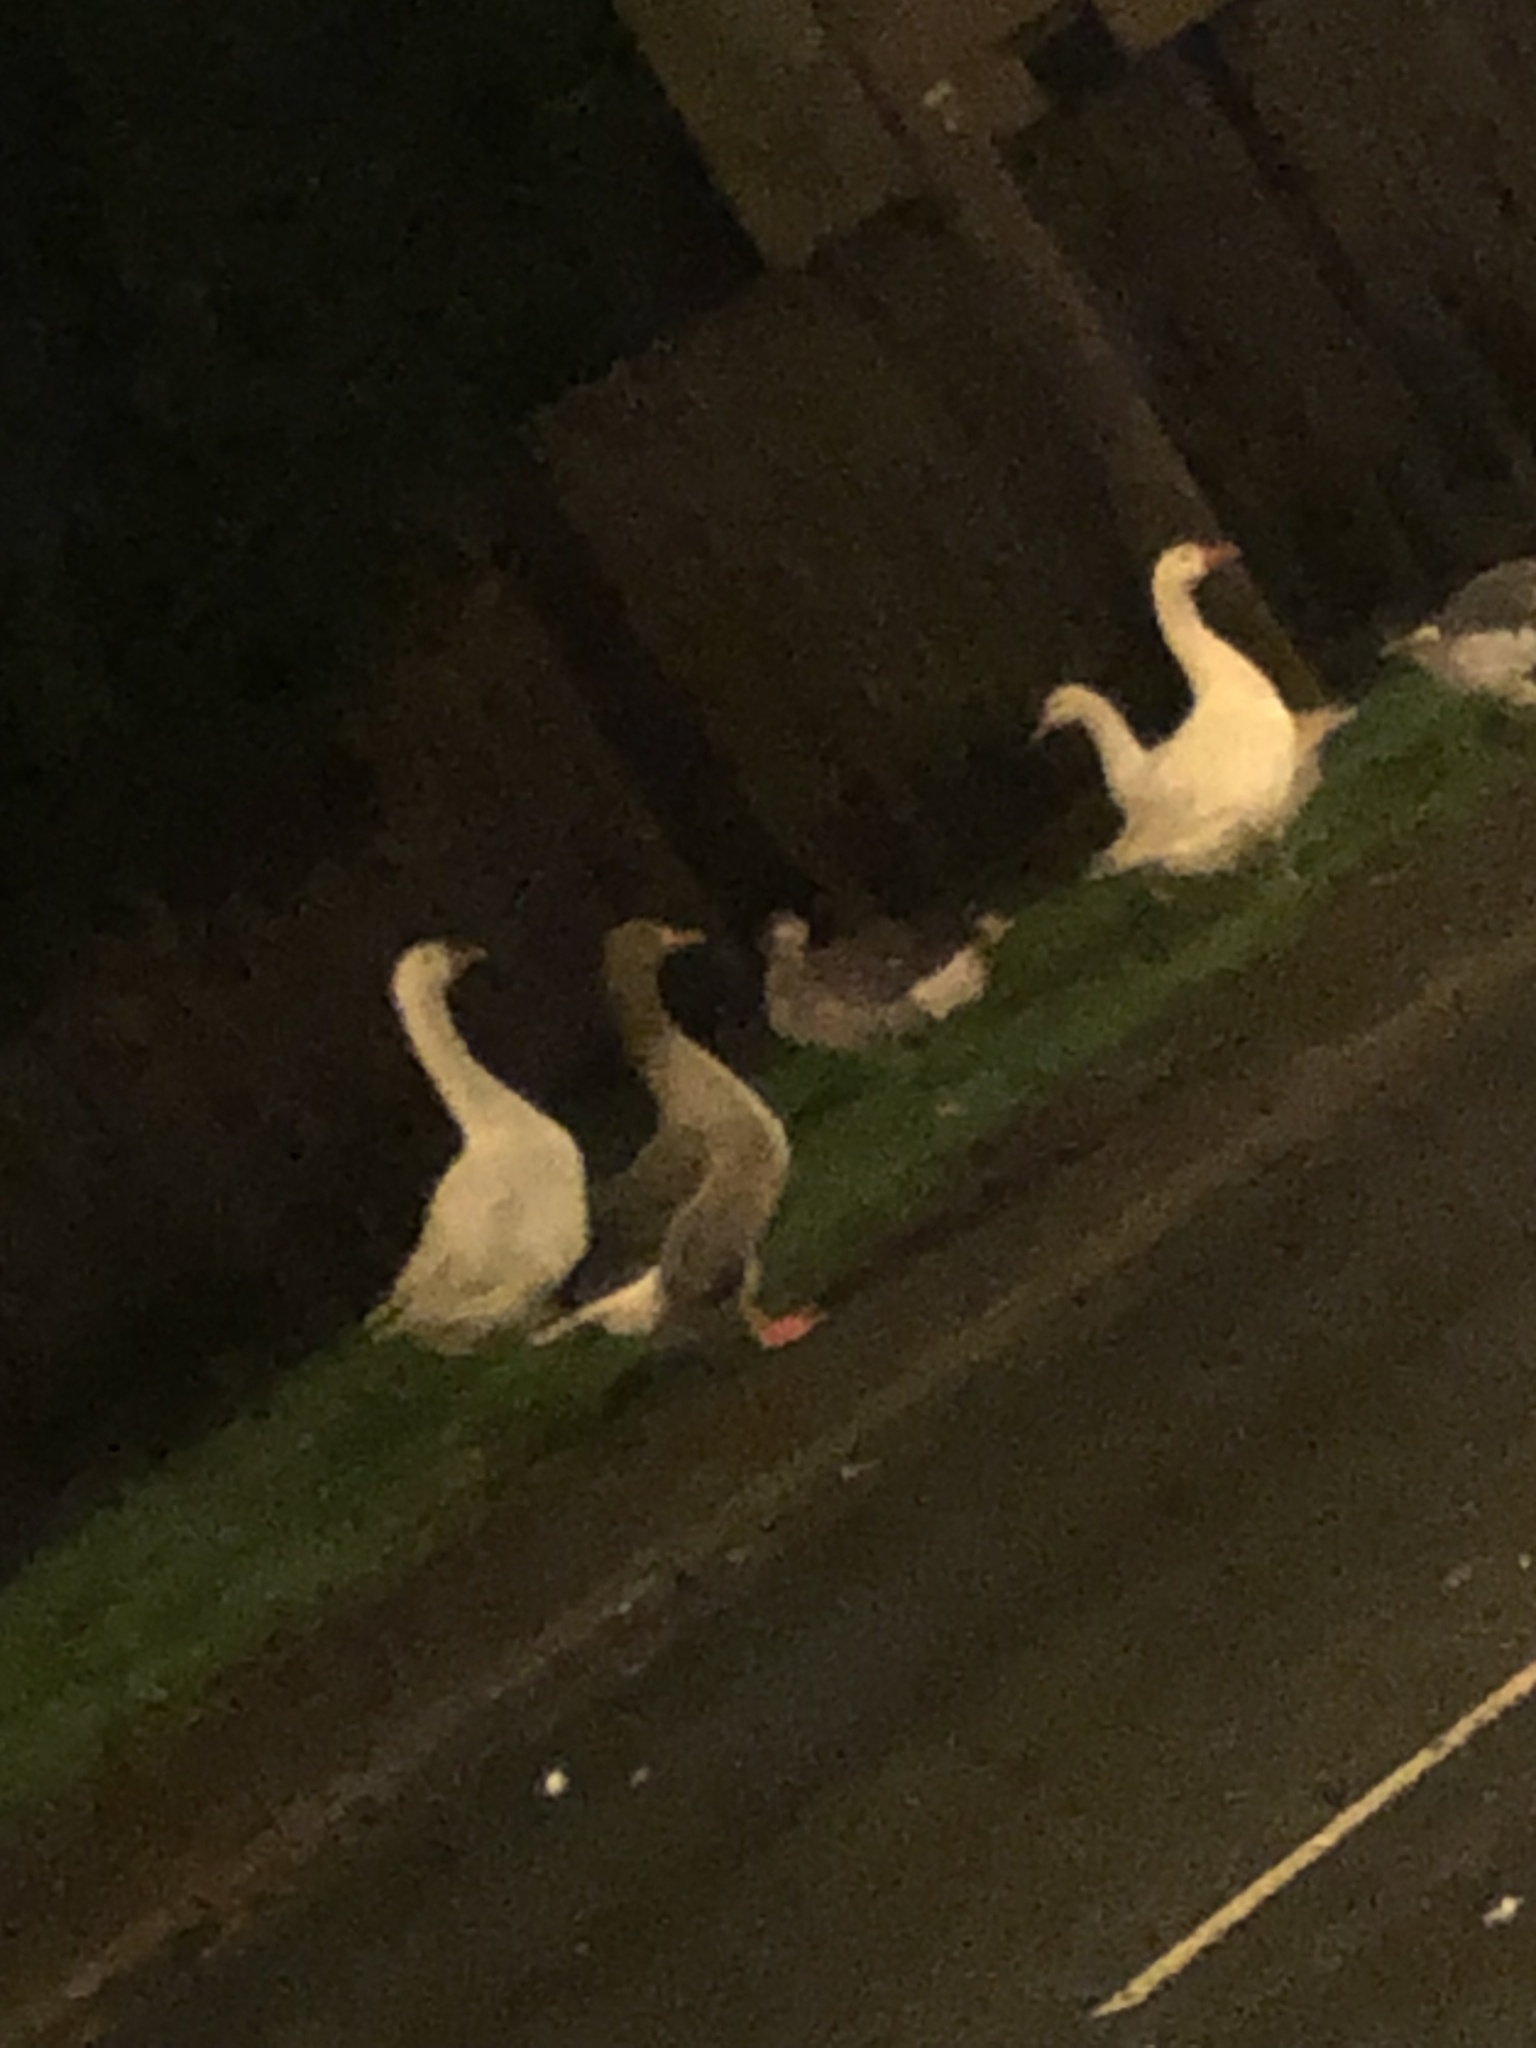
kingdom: Animalia
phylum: Chordata
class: Aves
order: Anseriformes
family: Anatidae
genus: Anser
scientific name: Anser anser
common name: Greylag goose
